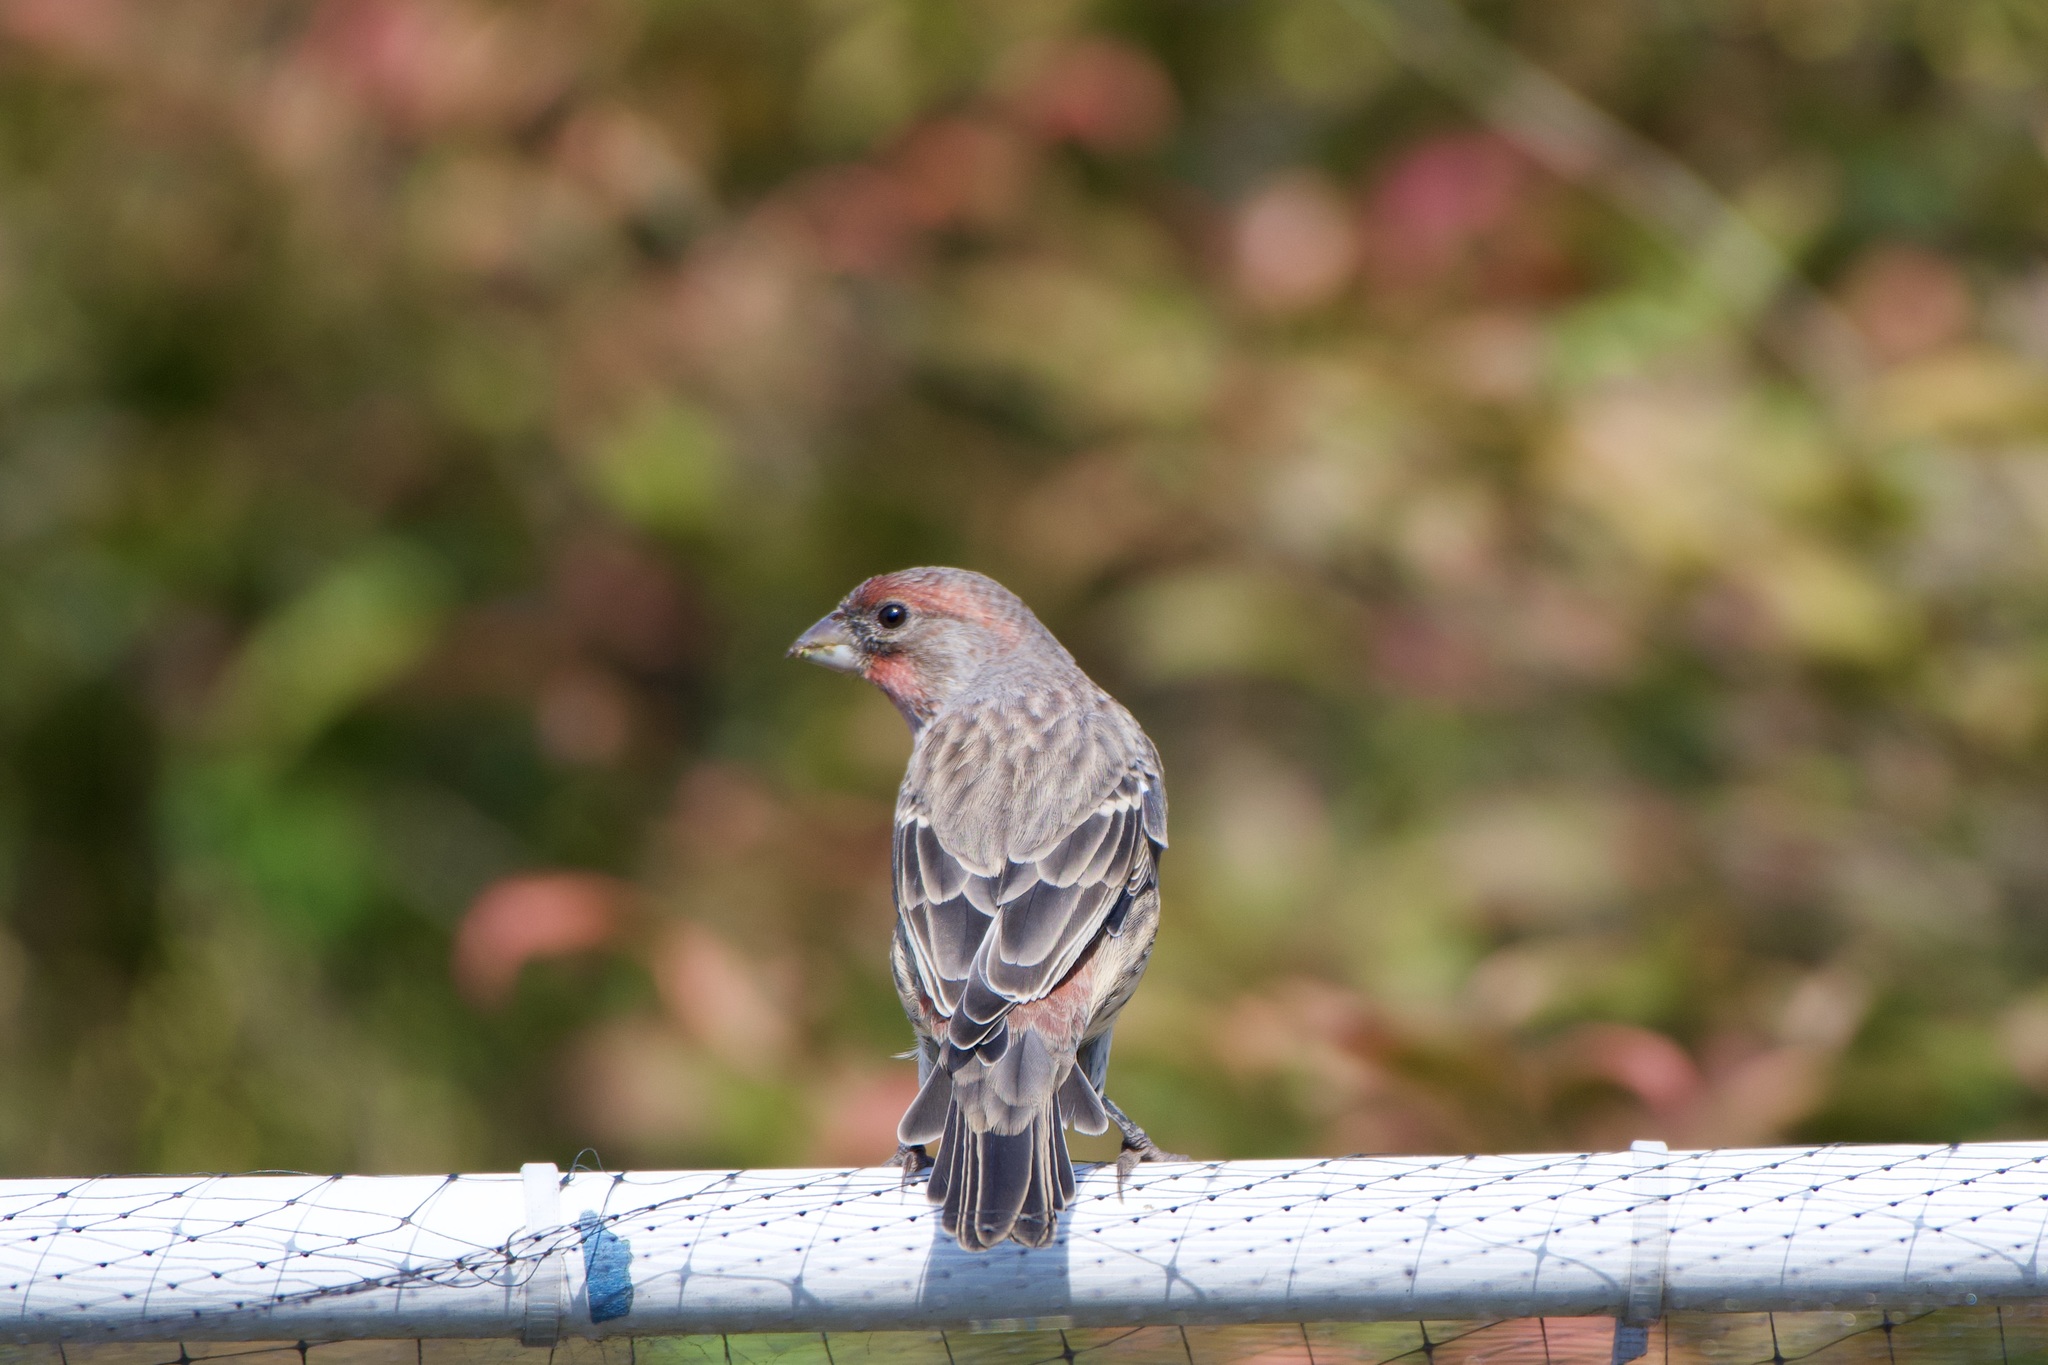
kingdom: Animalia
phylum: Chordata
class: Aves
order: Passeriformes
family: Fringillidae
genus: Haemorhous
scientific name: Haemorhous mexicanus
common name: House finch
